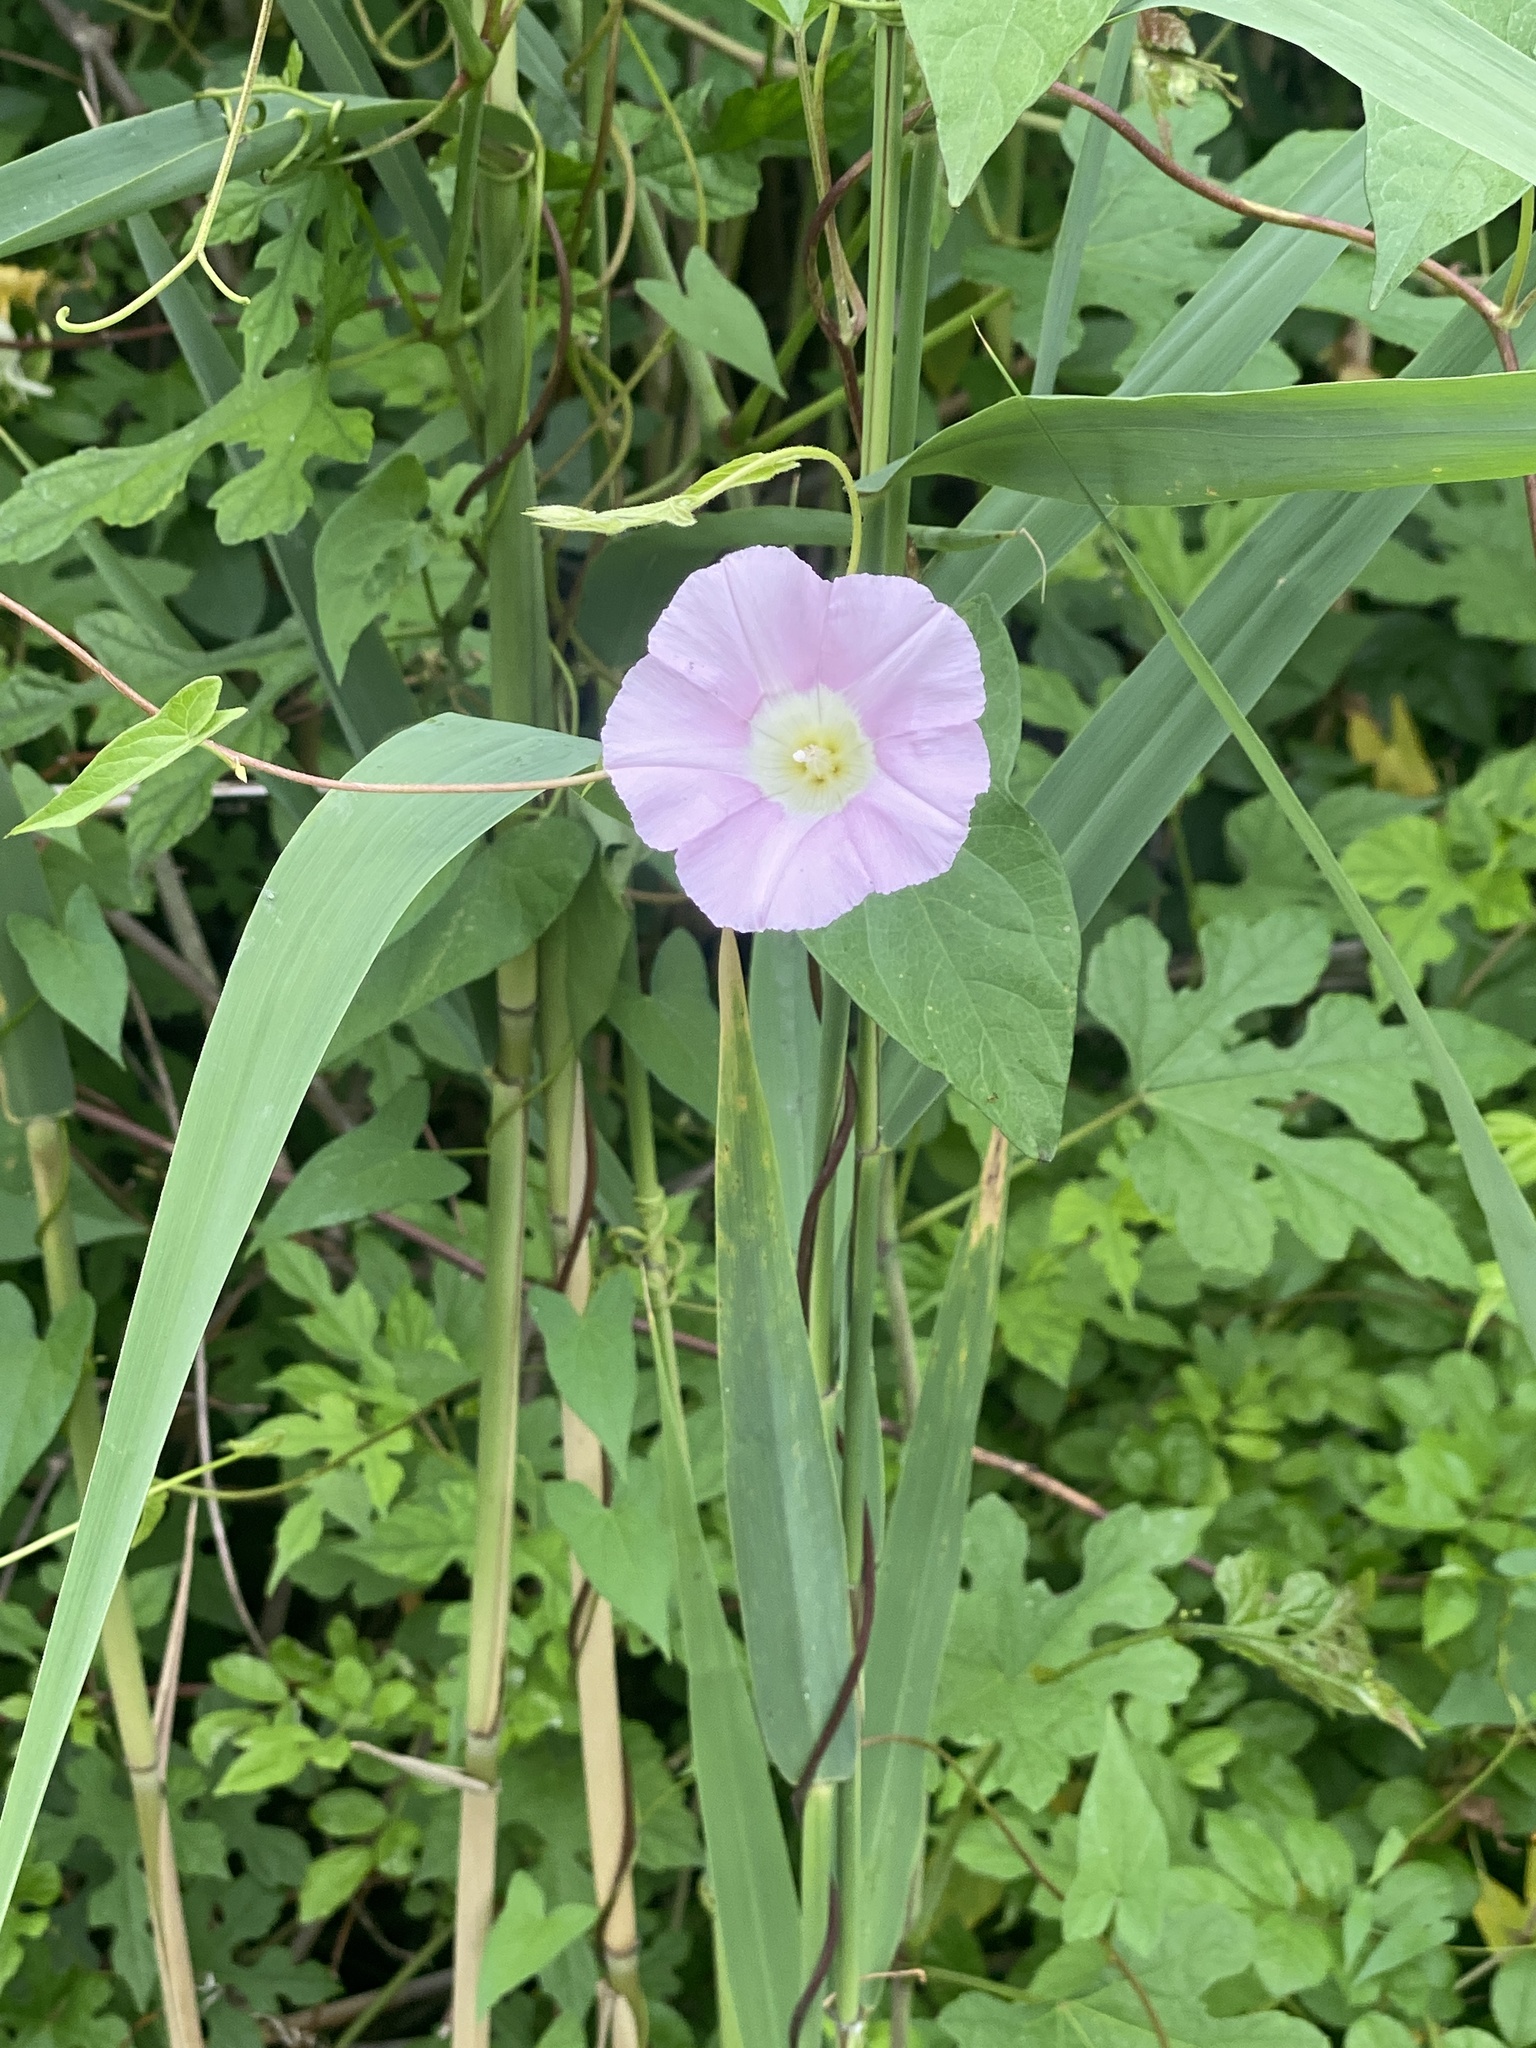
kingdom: Plantae
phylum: Tracheophyta
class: Magnoliopsida
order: Solanales
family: Convolvulaceae
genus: Calystegia
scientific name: Calystegia sepium
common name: Hedge bindweed
